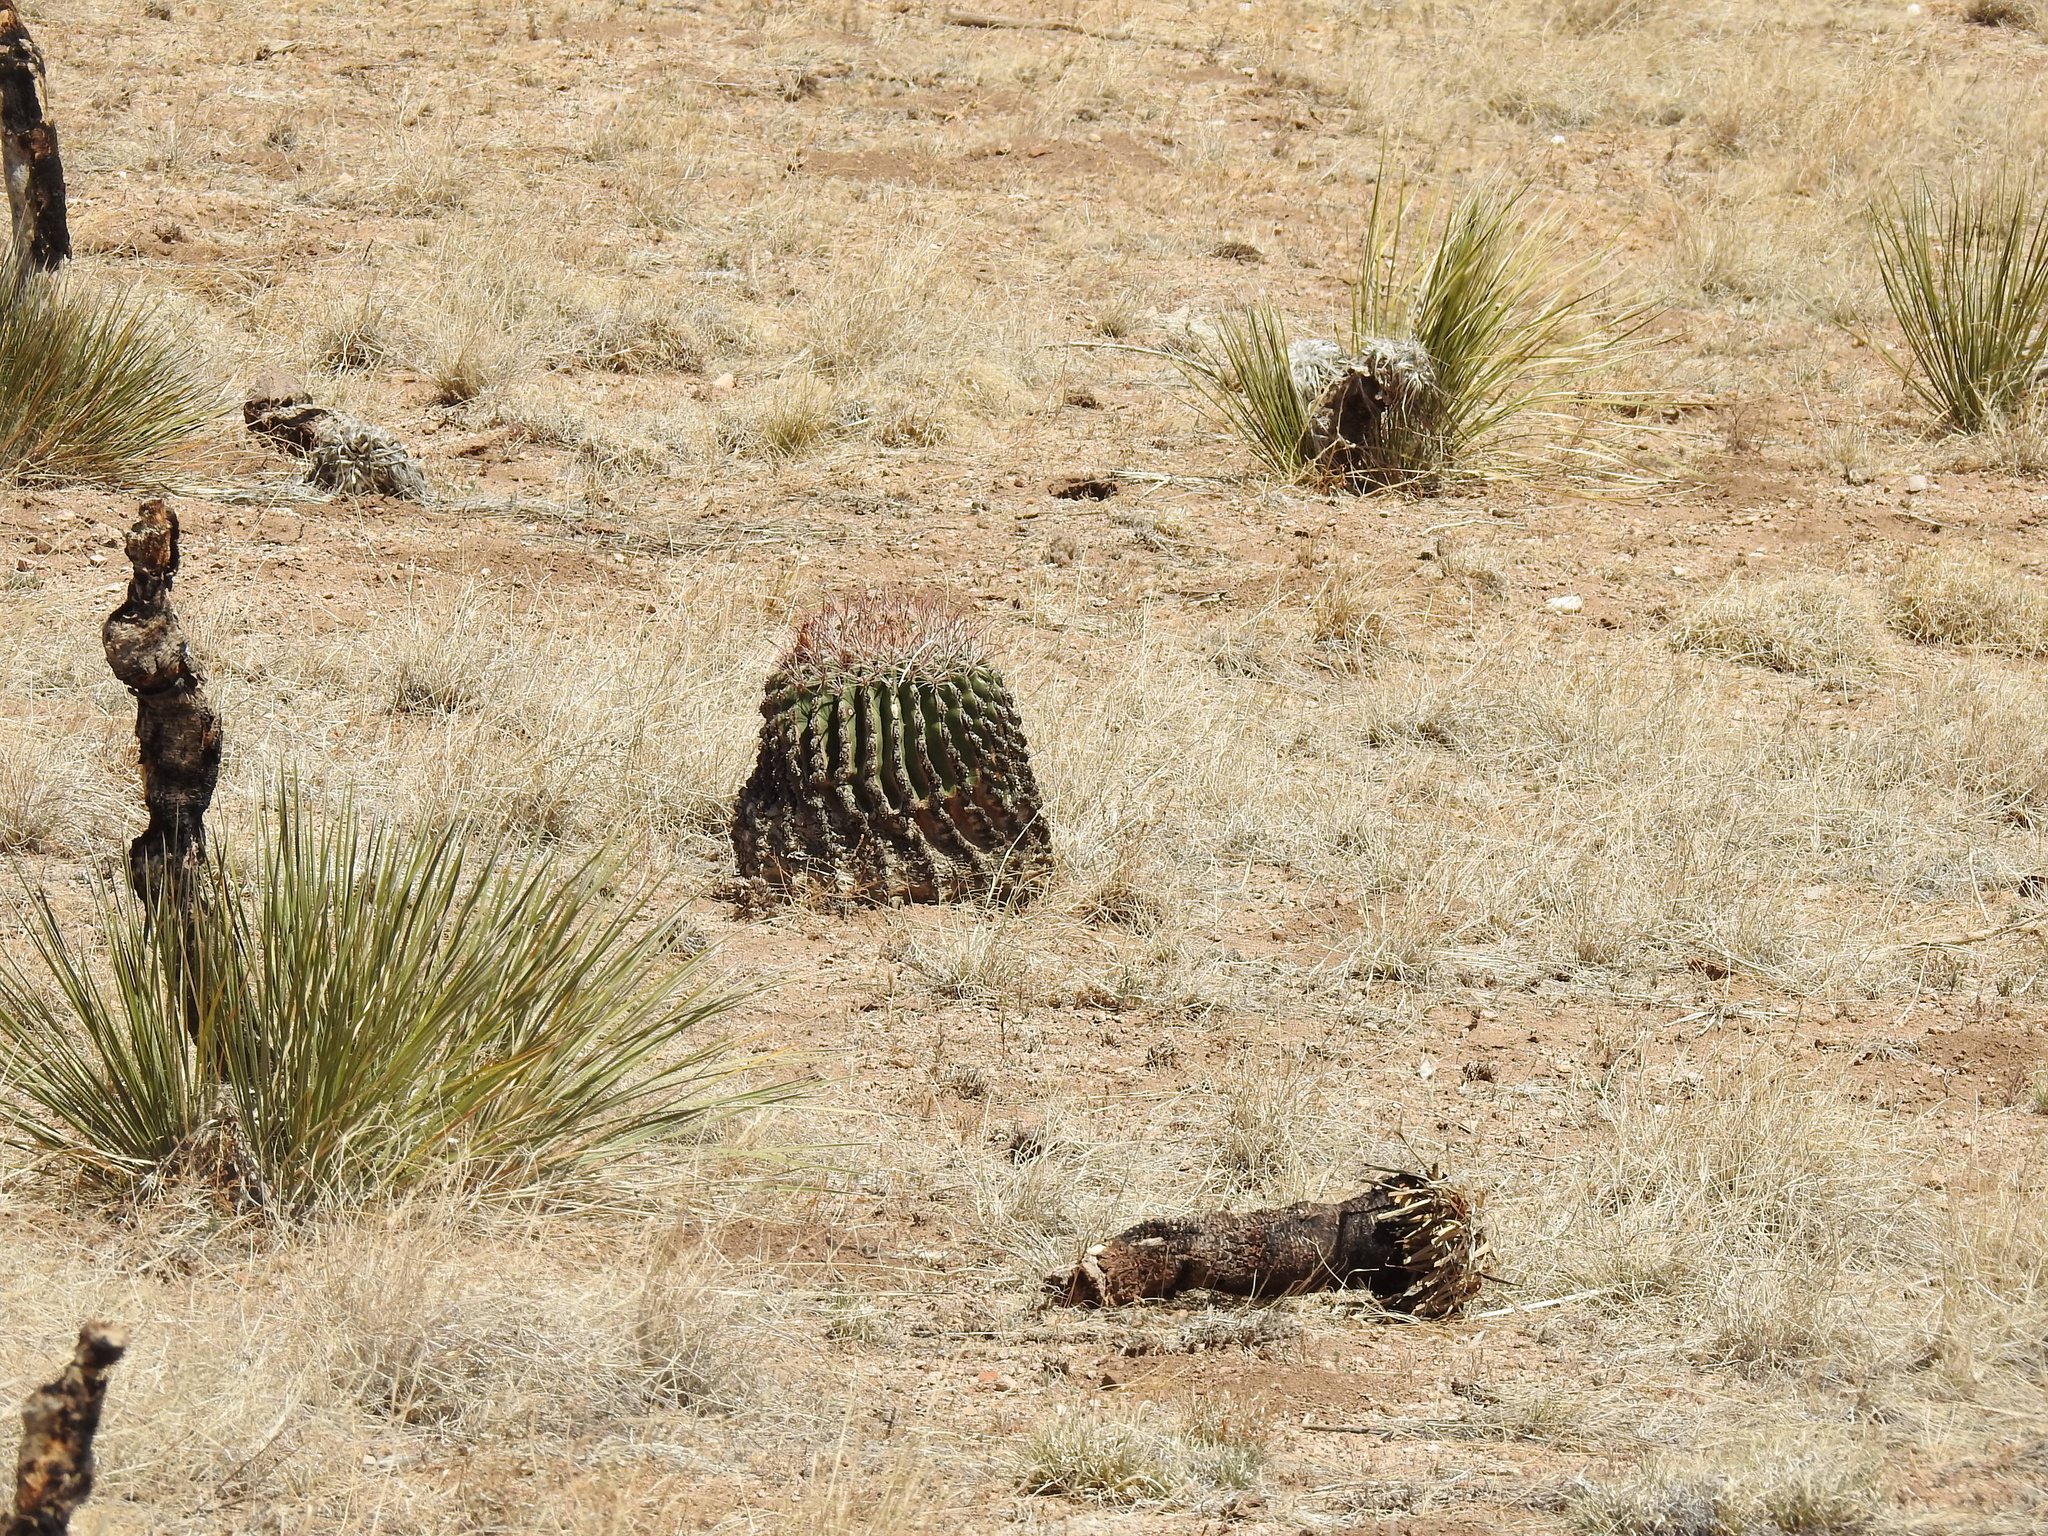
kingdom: Plantae
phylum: Tracheophyta
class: Magnoliopsida
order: Caryophyllales
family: Cactaceae
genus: Ferocactus
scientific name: Ferocactus wislizeni
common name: Candy barrel cactus
